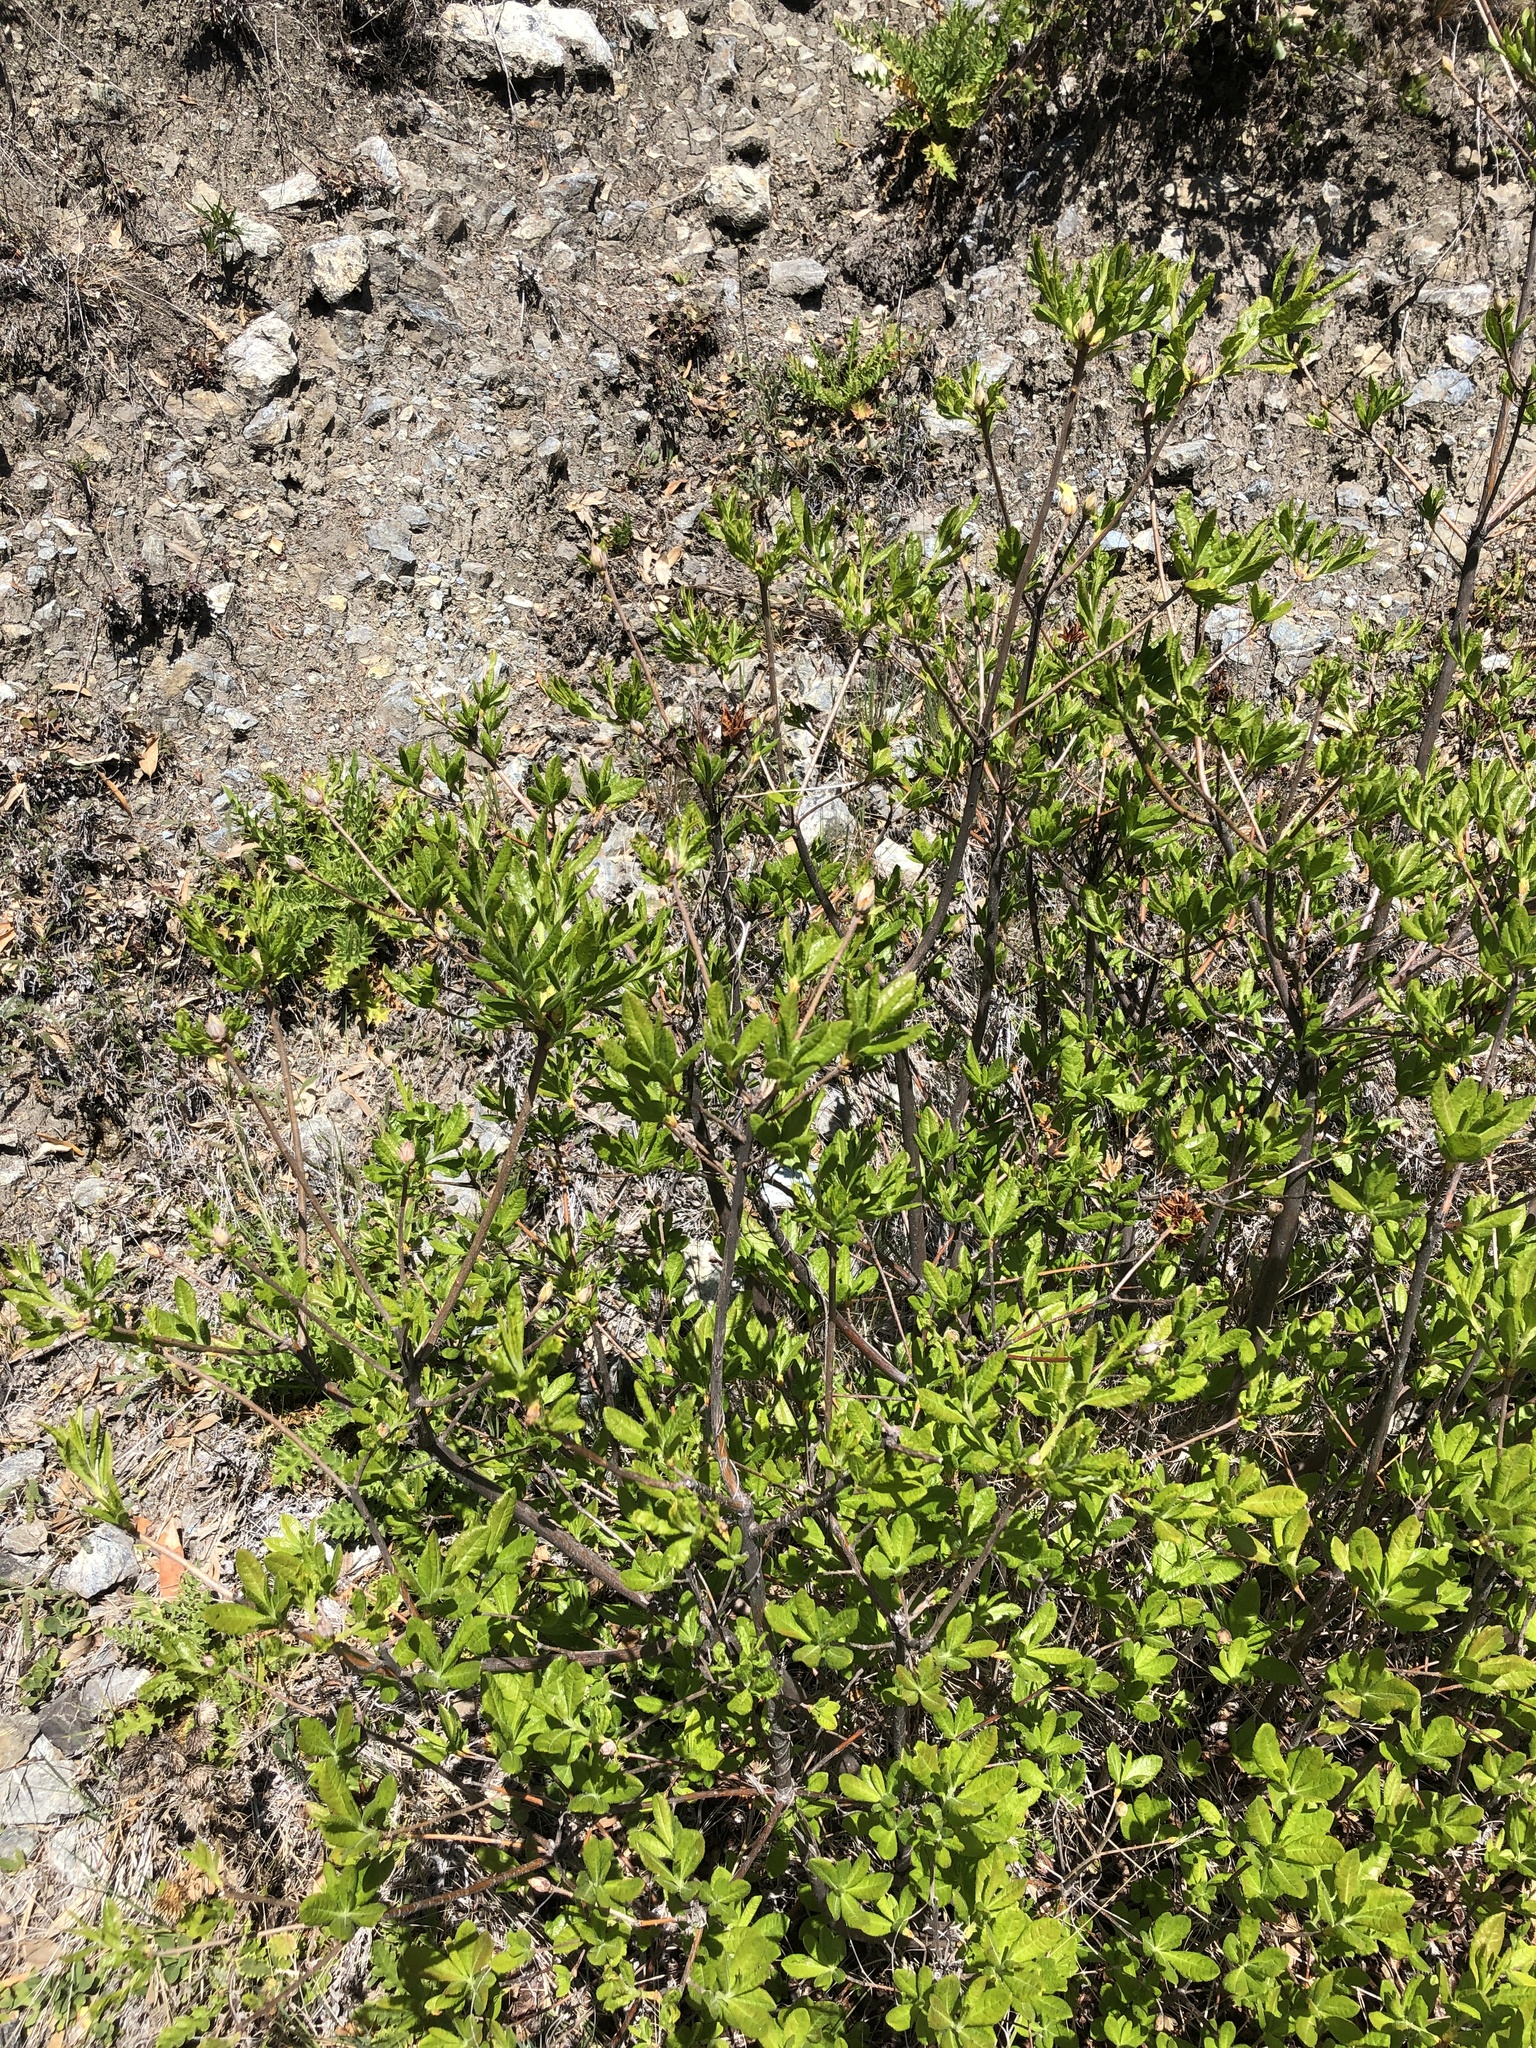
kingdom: Plantae
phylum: Tracheophyta
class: Magnoliopsida
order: Ericales
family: Ericaceae
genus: Rhododendron
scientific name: Rhododendron occidentale
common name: Western azalea
